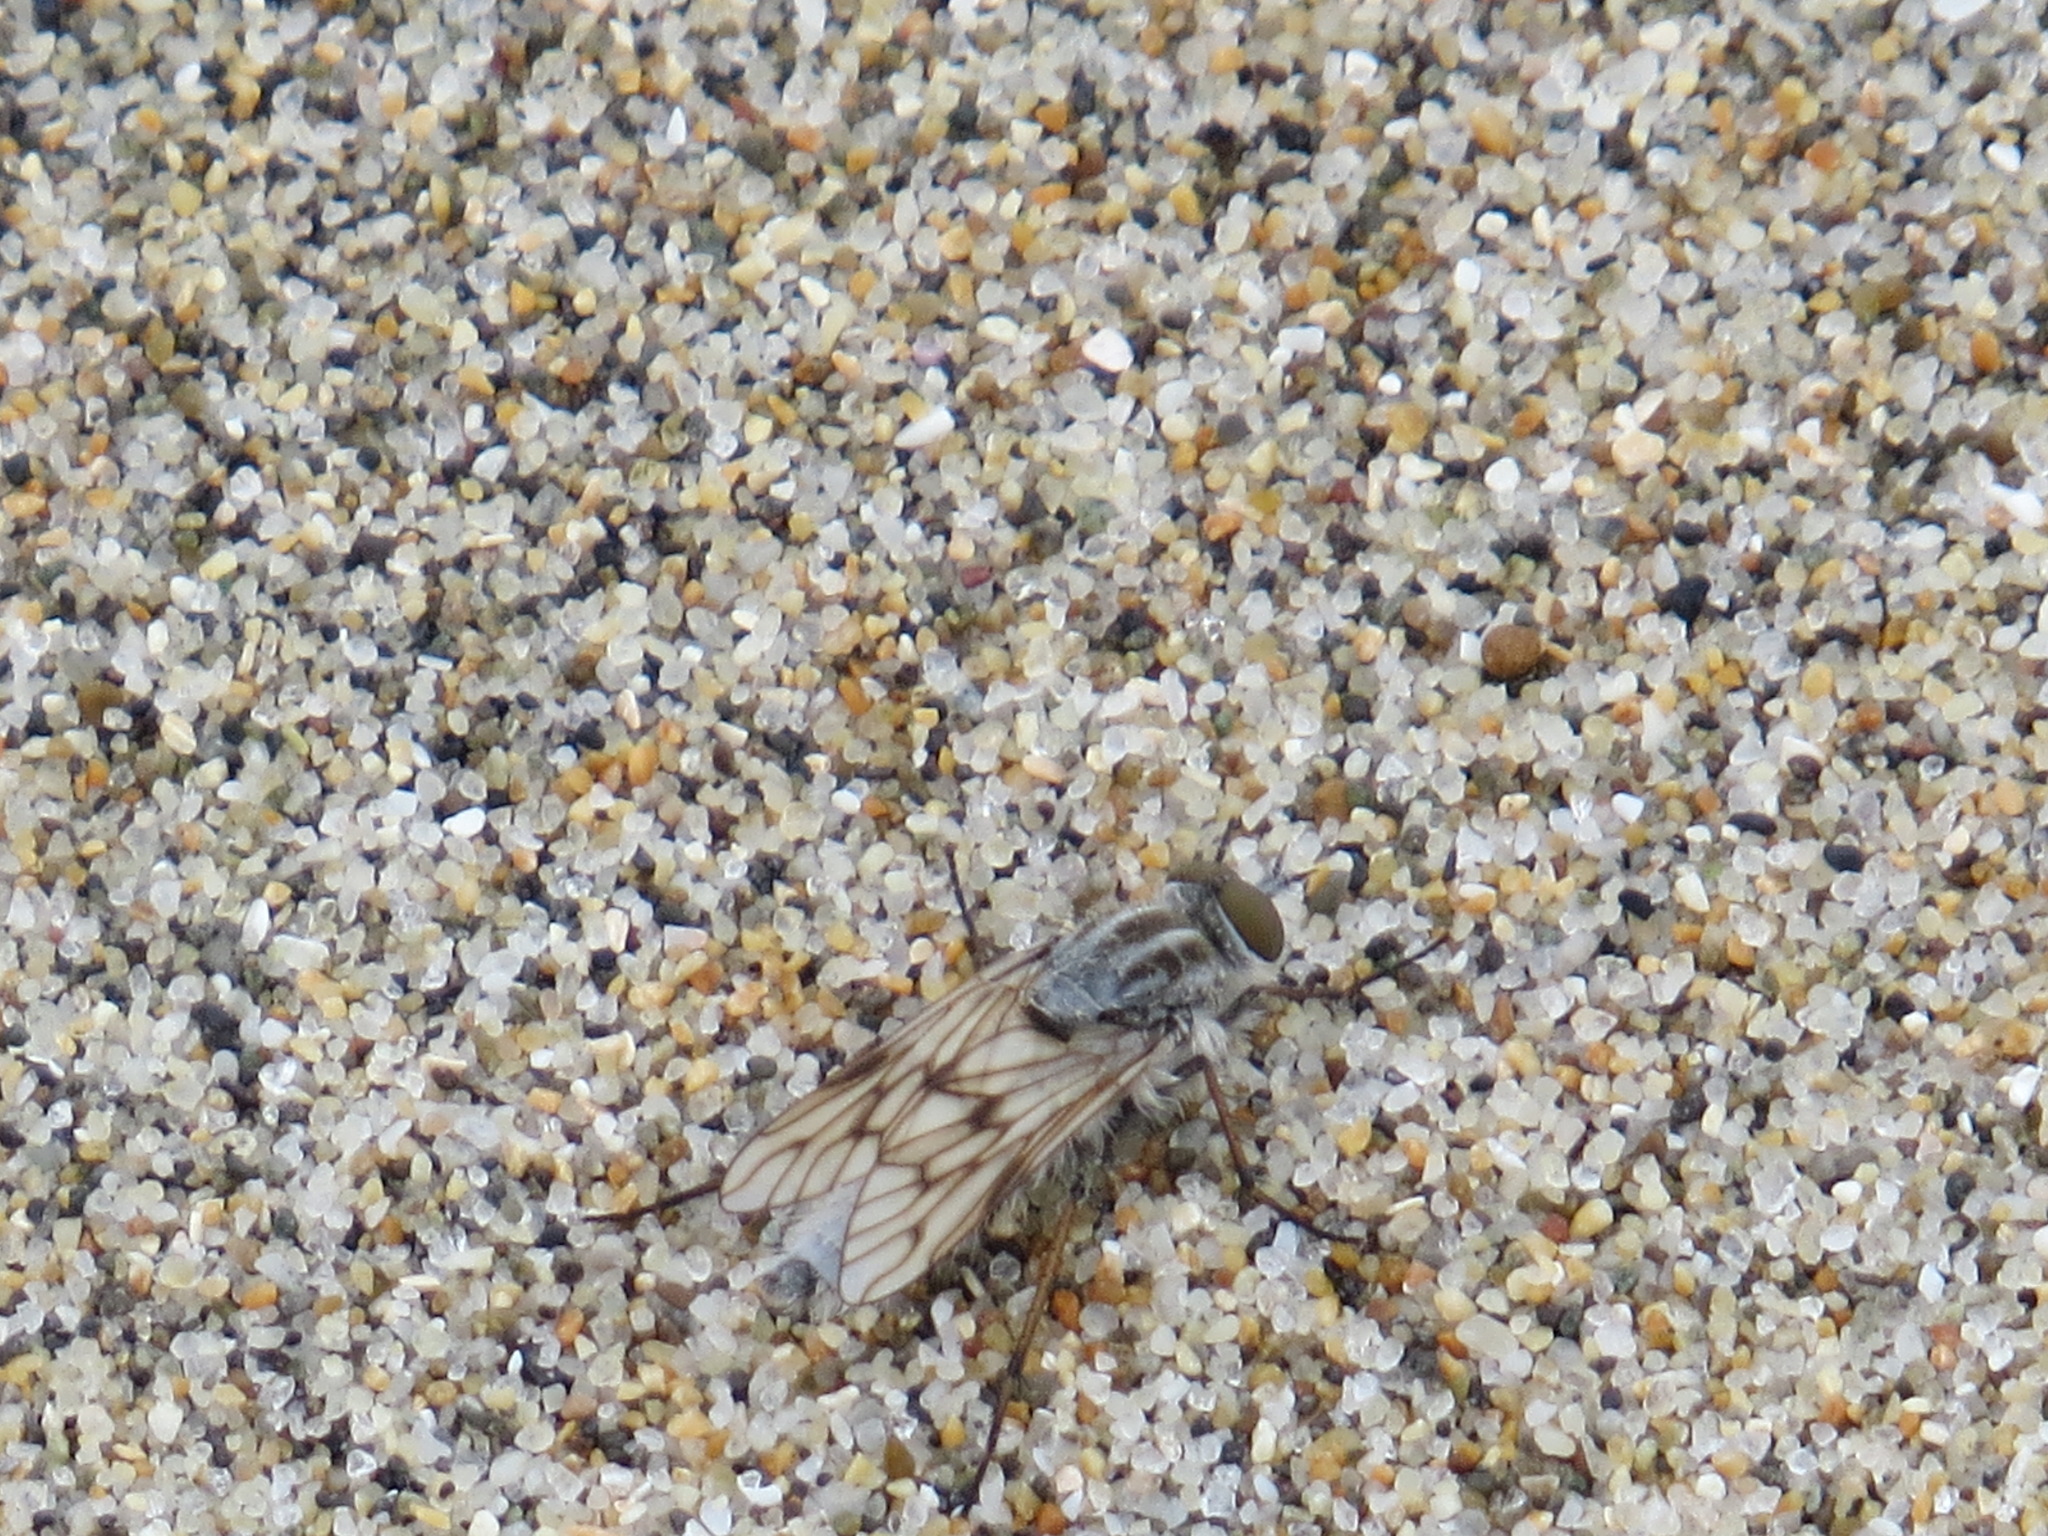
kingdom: Animalia
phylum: Arthropoda
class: Insecta
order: Diptera
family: Therevidae
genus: Acrosathe
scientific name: Acrosathe vanduzeei
